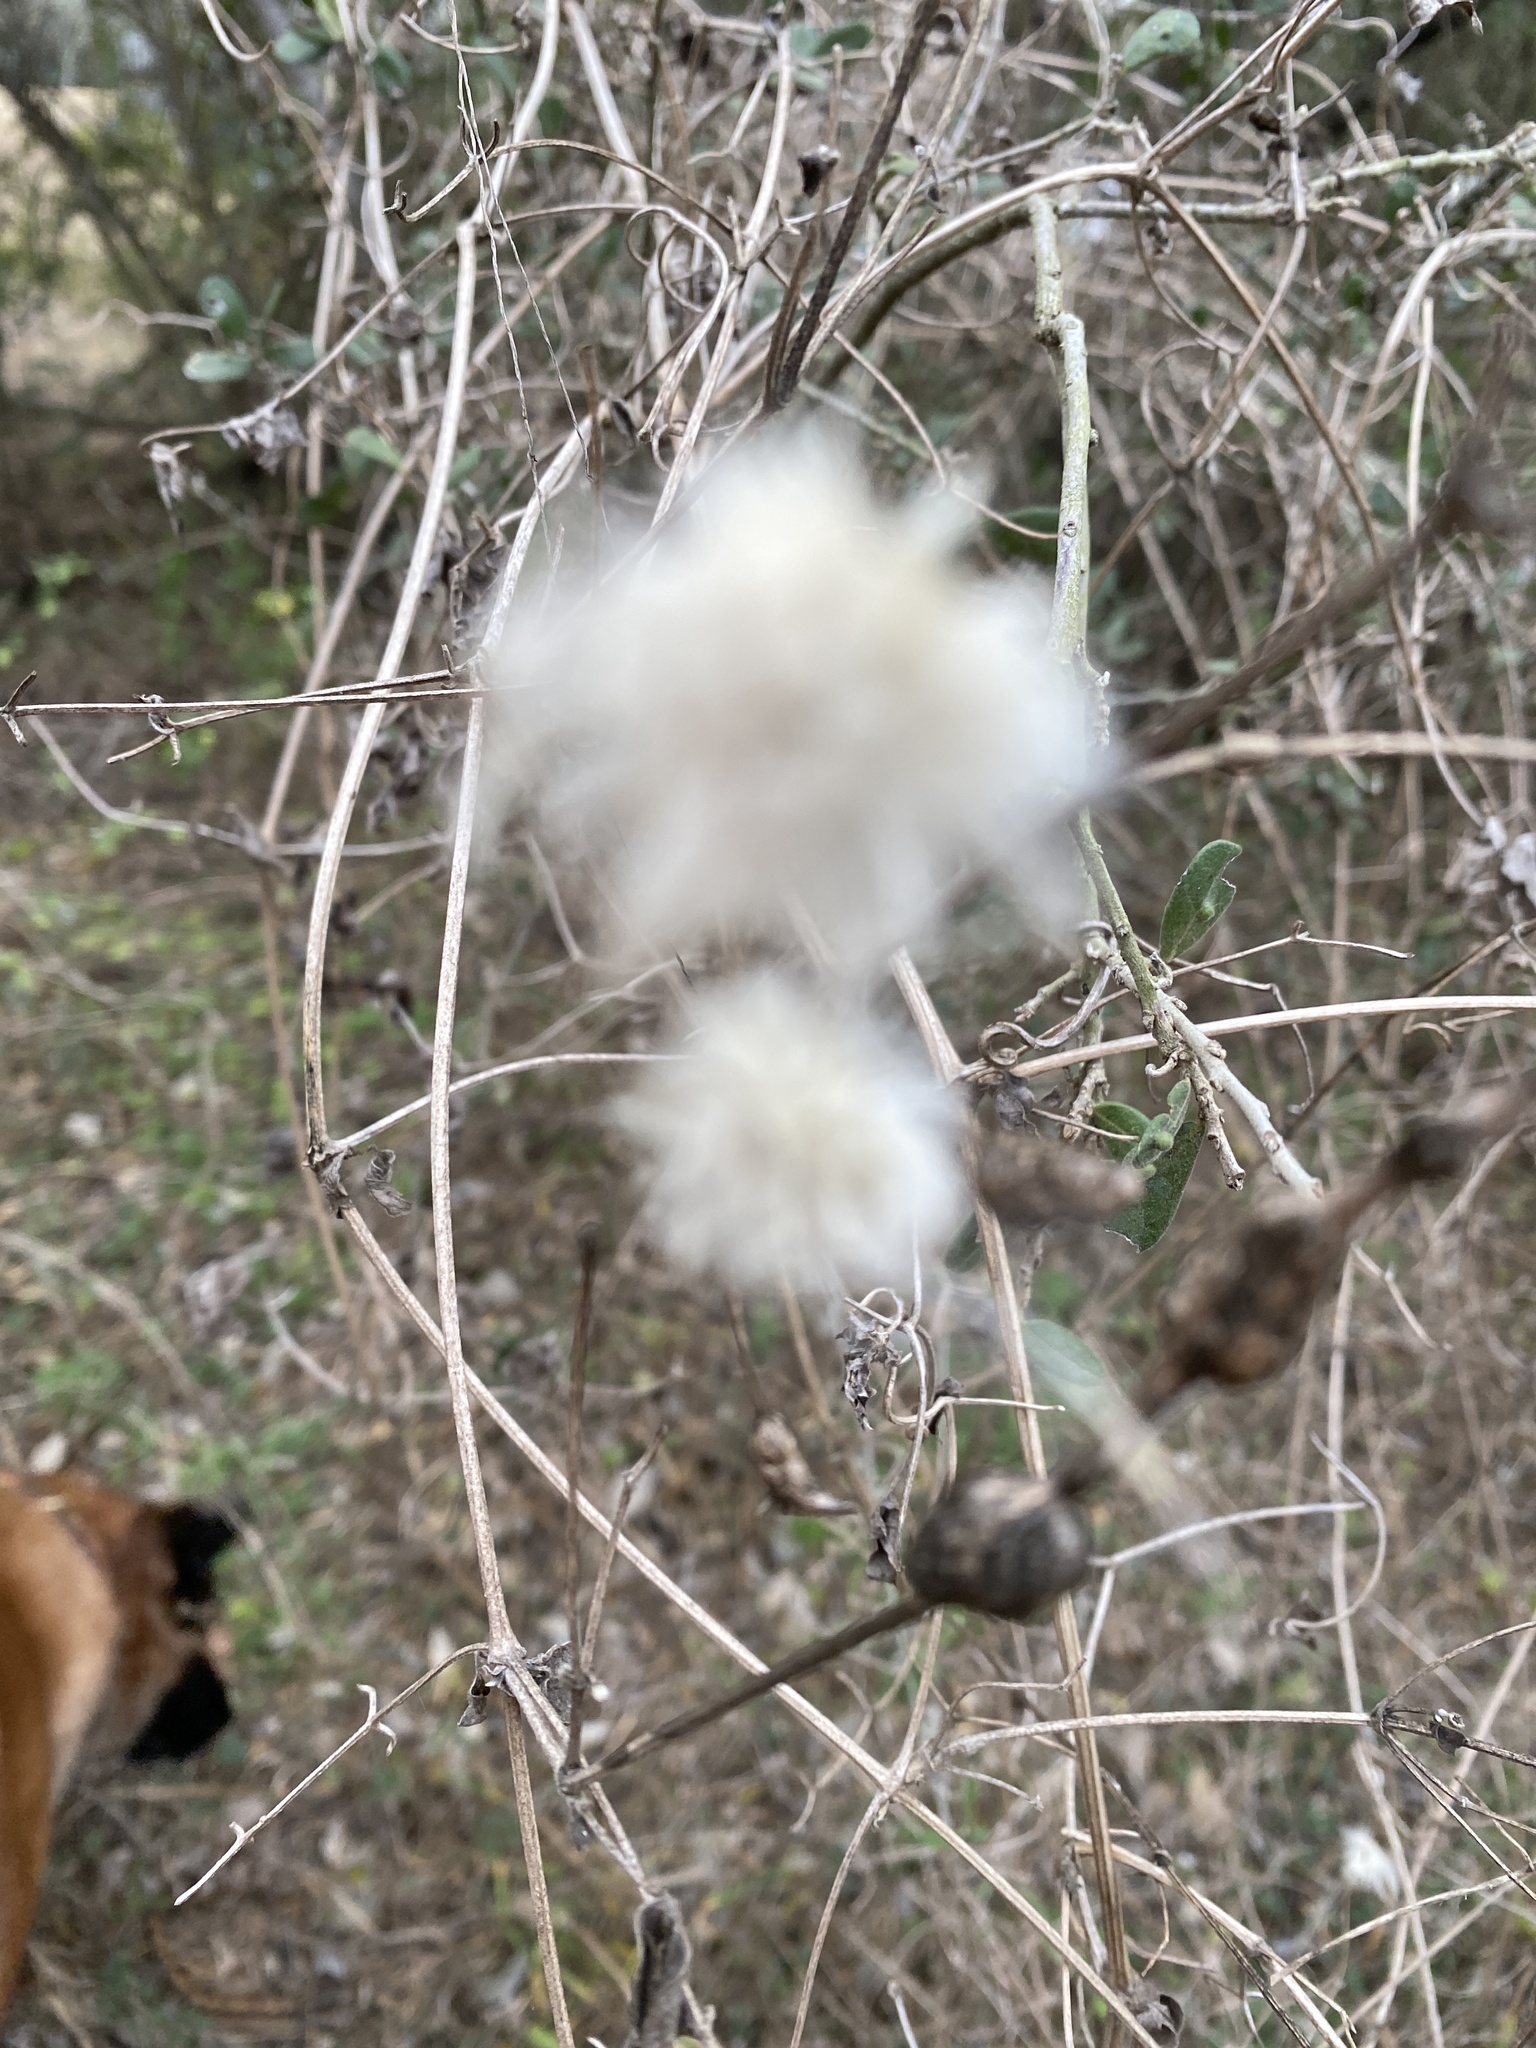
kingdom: Plantae
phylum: Tracheophyta
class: Magnoliopsida
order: Ranunculales
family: Ranunculaceae
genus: Clematis
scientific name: Clematis drummondii
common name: Texas virgin's bower
